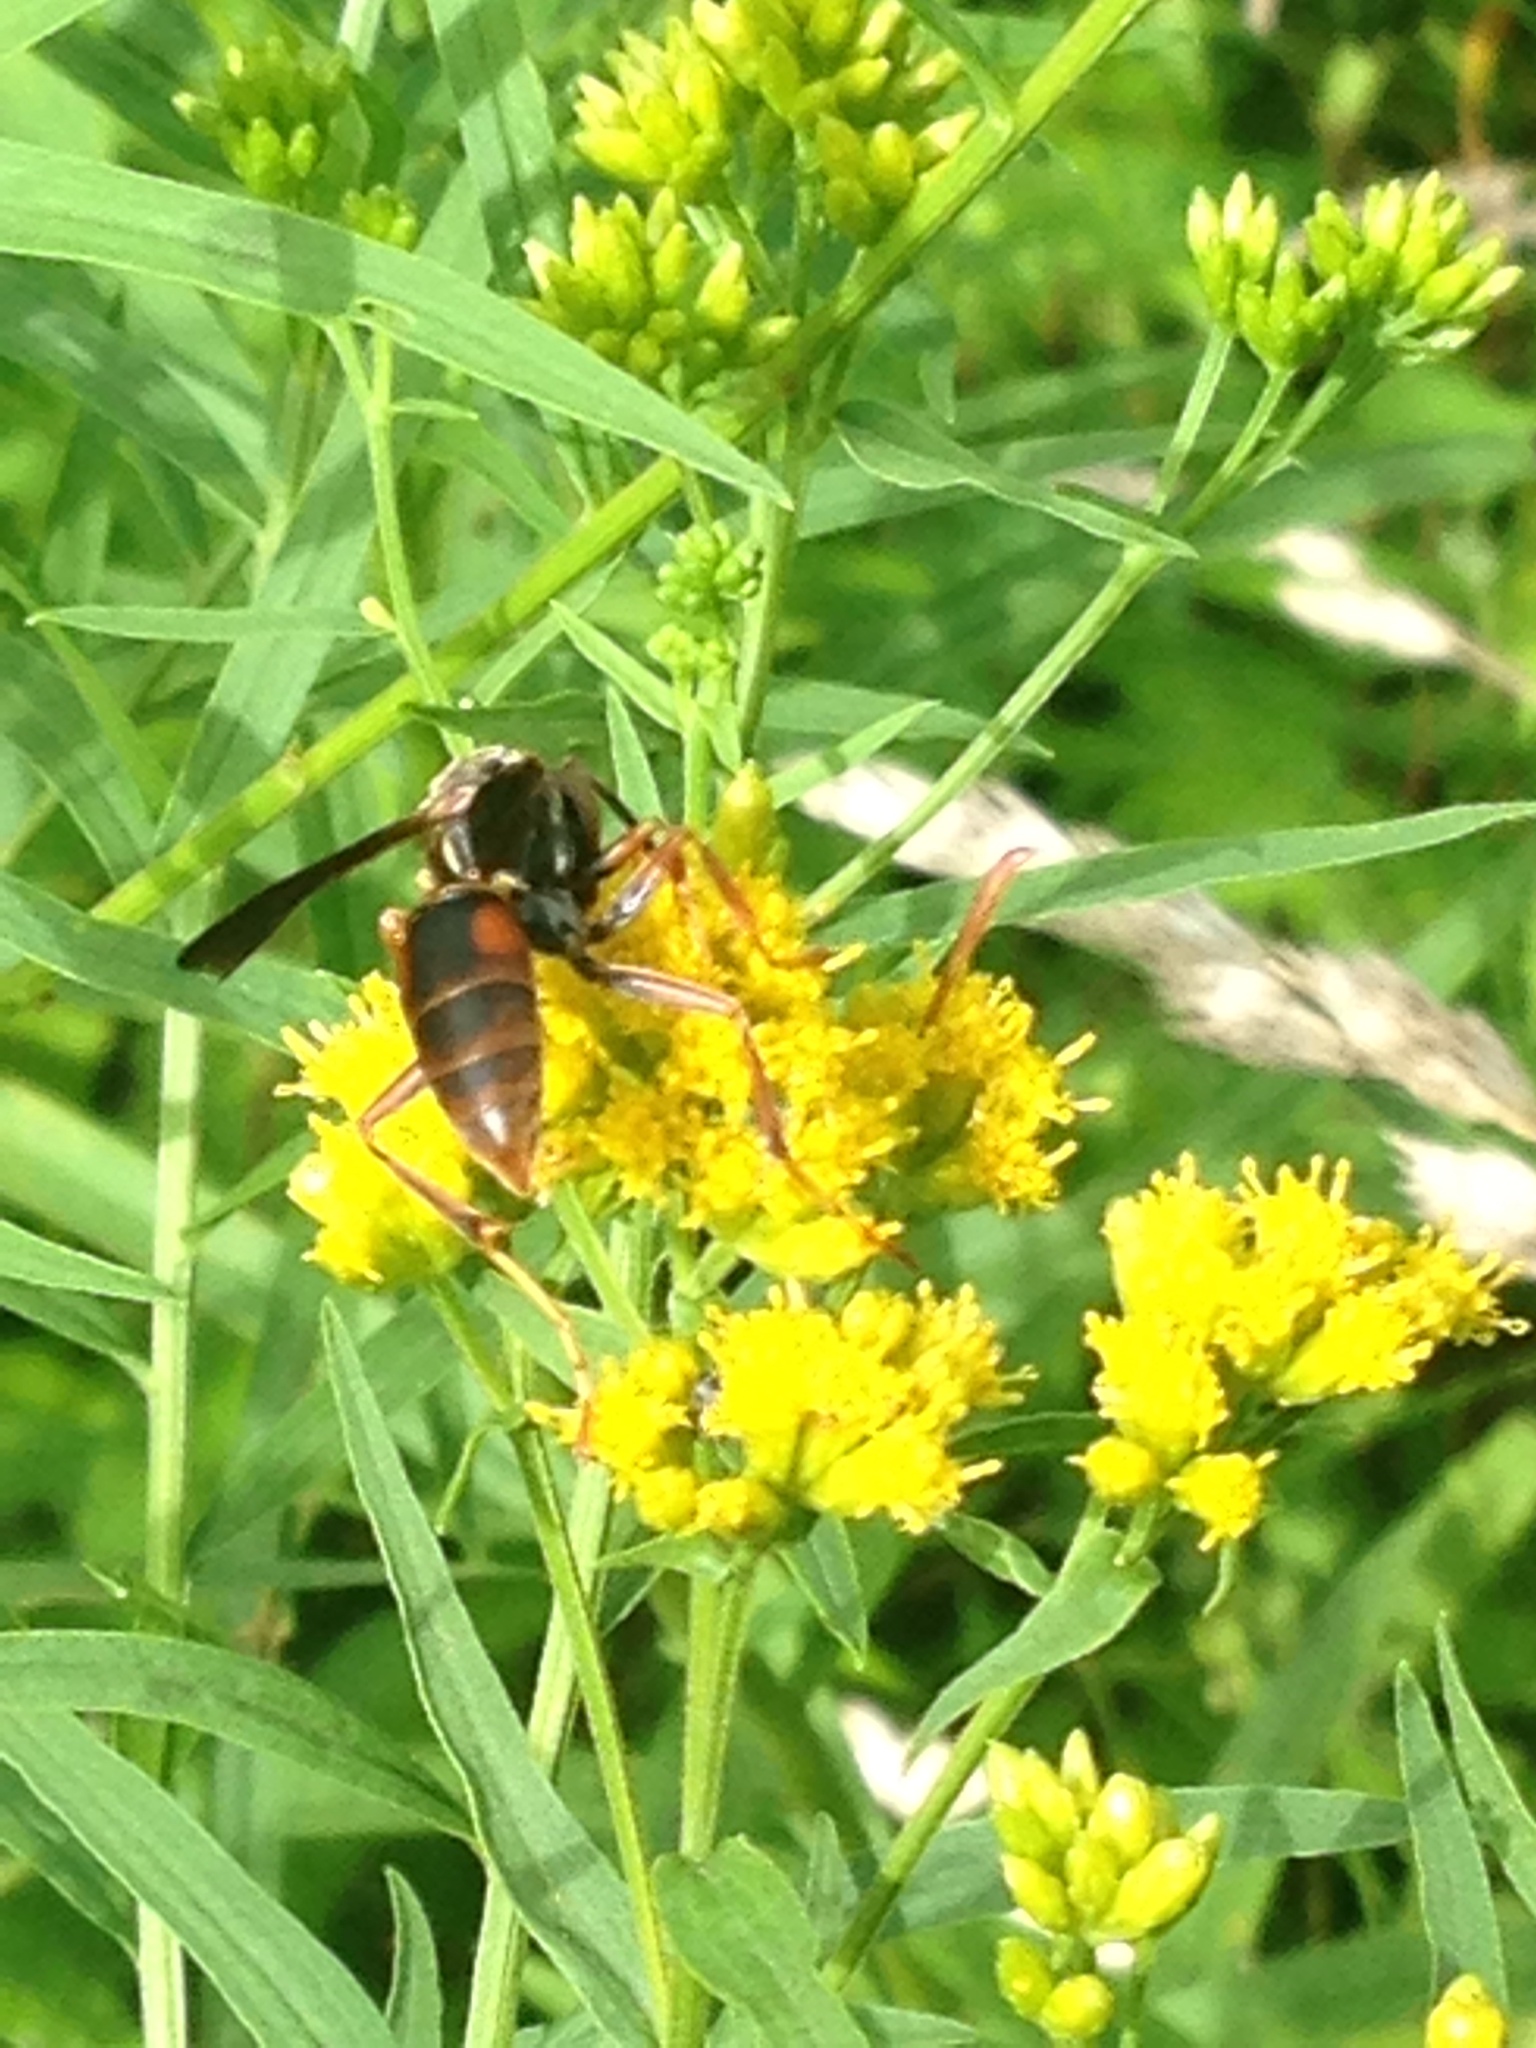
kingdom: Animalia
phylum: Arthropoda
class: Insecta
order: Hymenoptera
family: Eumenidae
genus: Polistes
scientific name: Polistes fuscatus
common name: Dark paper wasp
